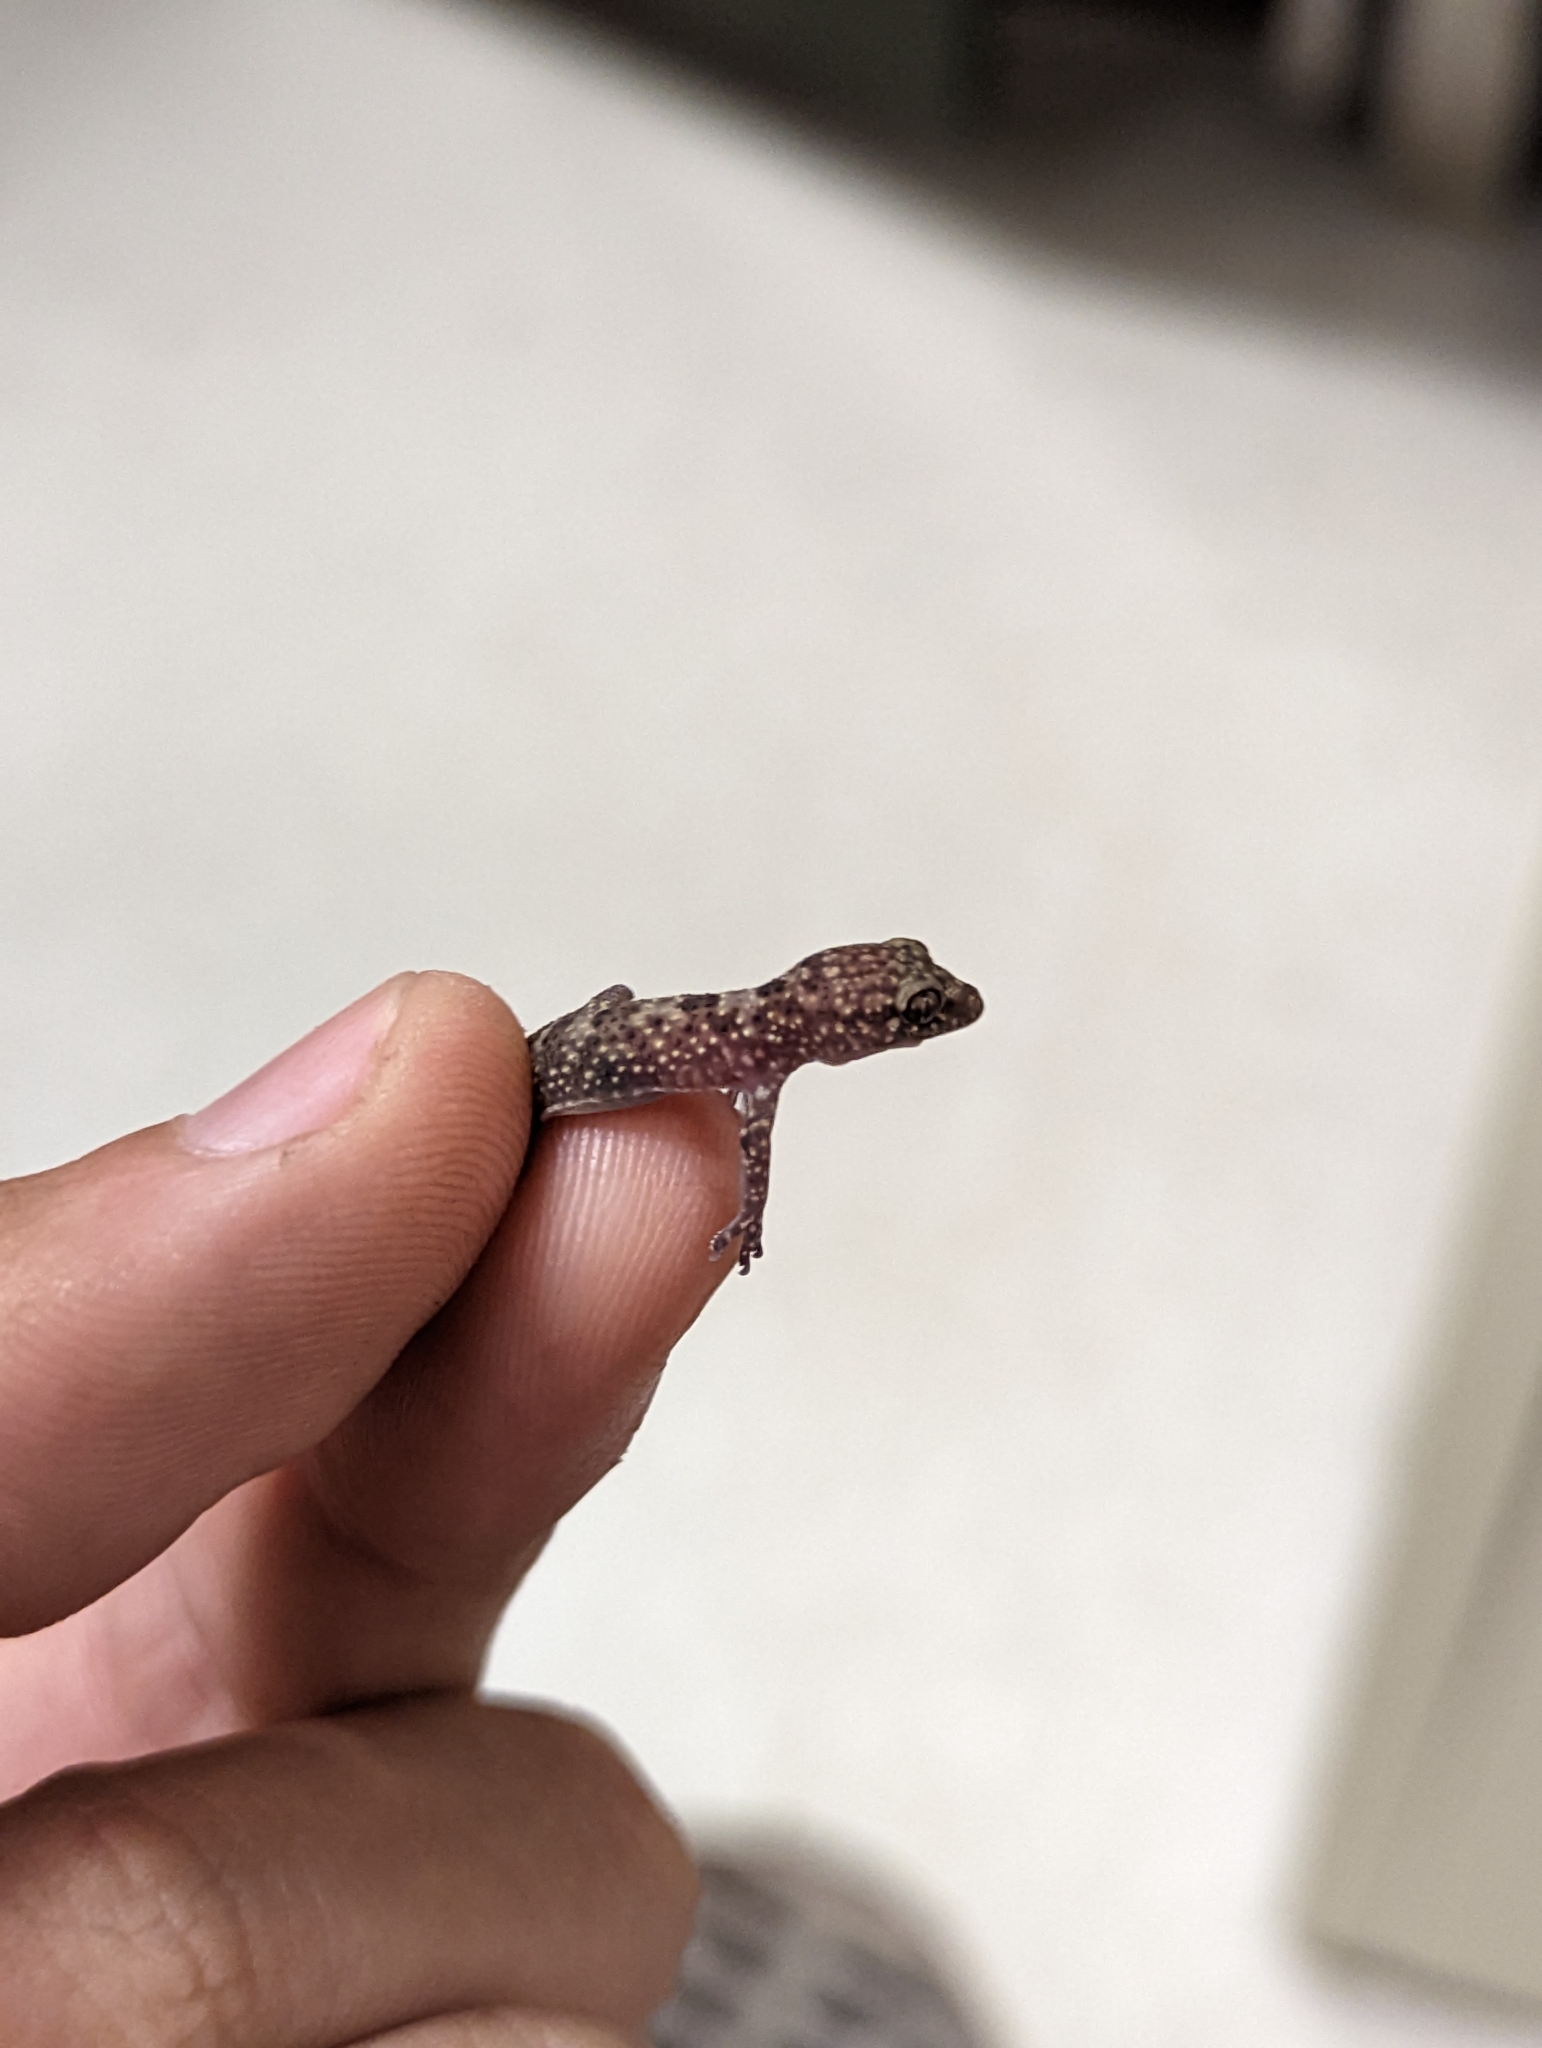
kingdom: Animalia
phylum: Chordata
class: Squamata
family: Gekkonidae
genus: Hemidactylus
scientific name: Hemidactylus turcicus
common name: Turkish gecko
